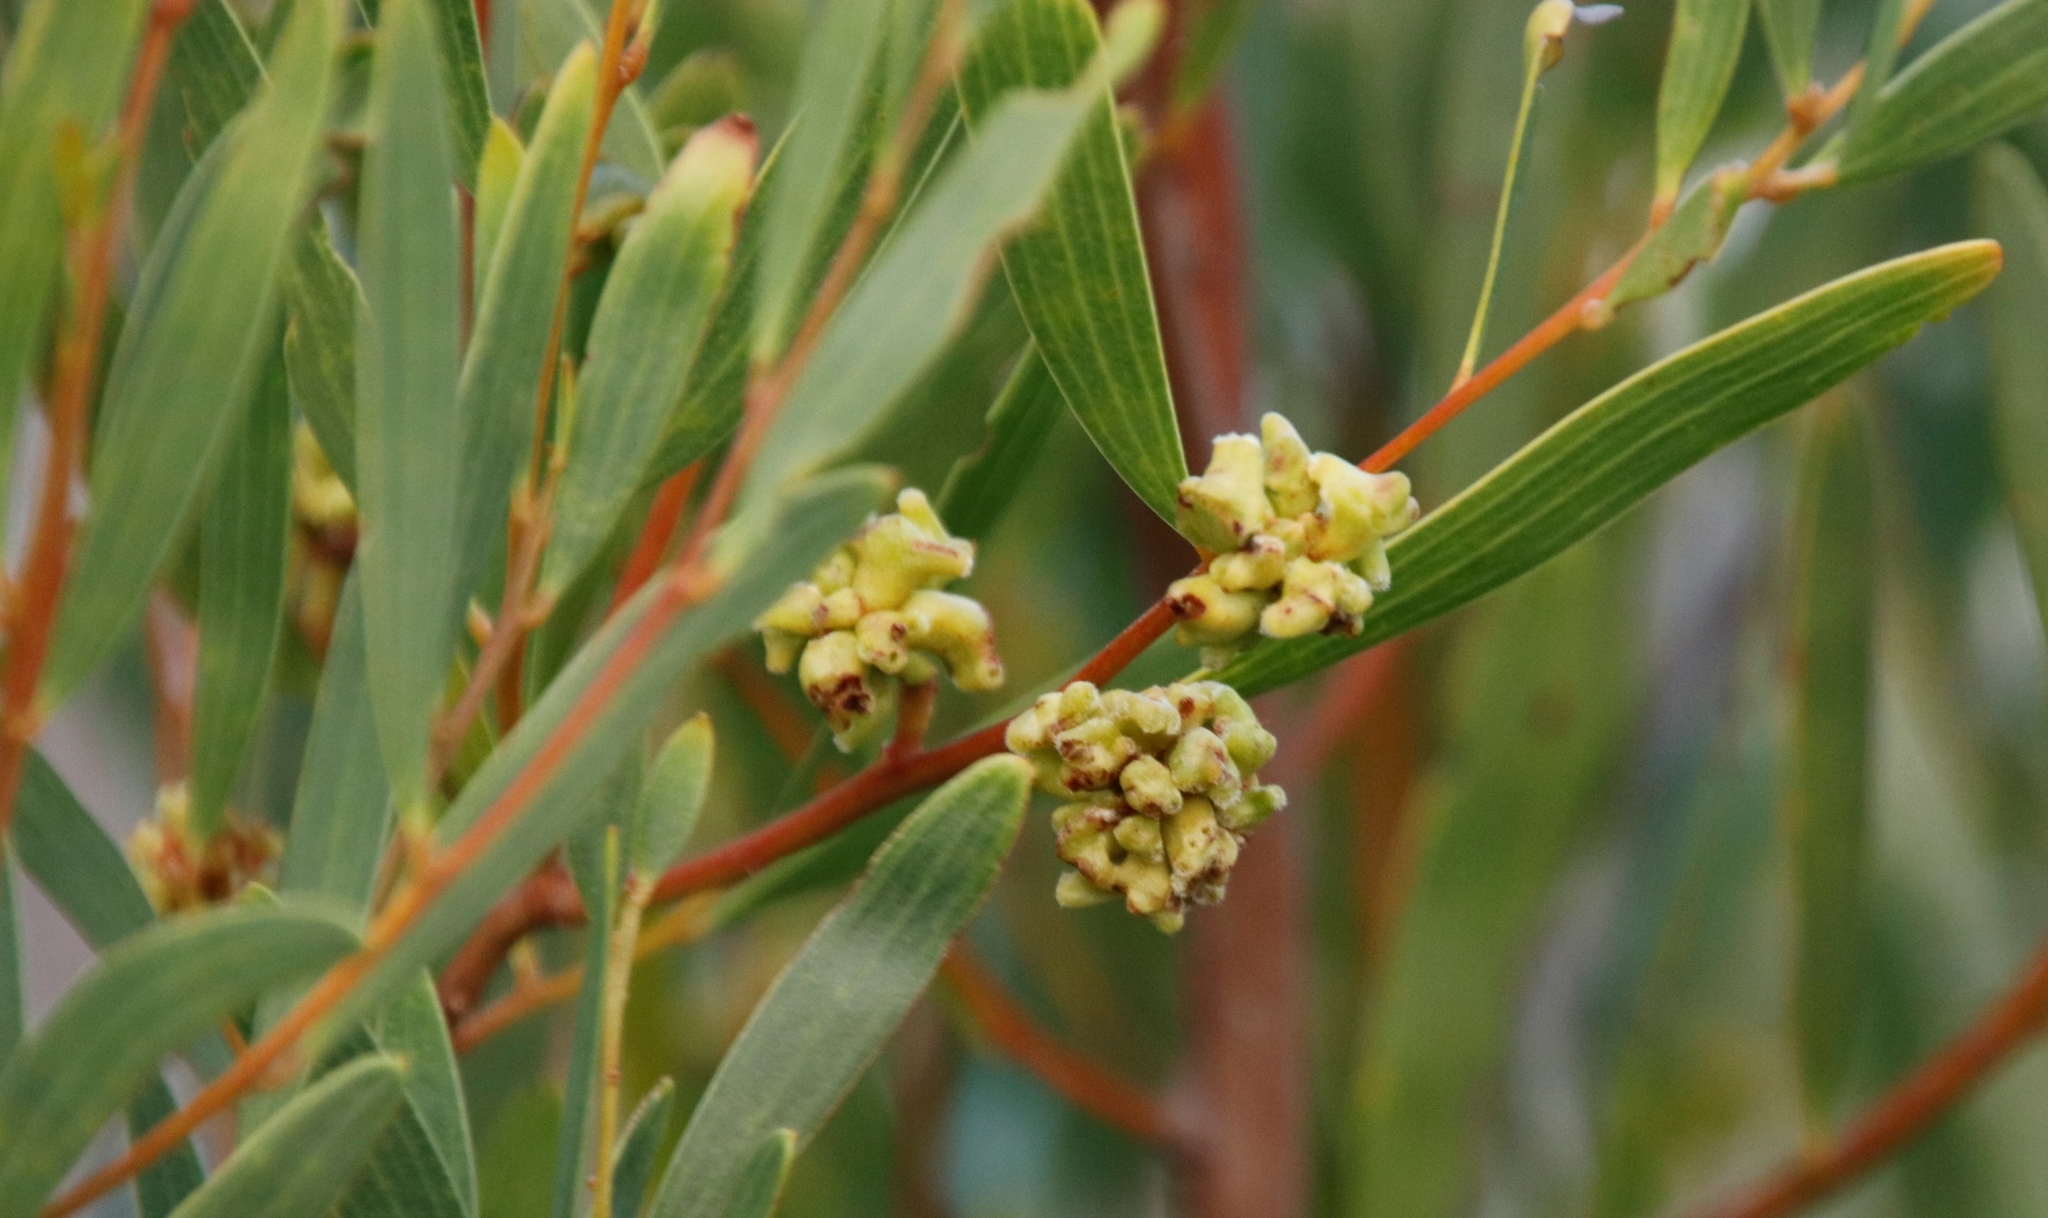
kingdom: Animalia
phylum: Arthropoda
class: Insecta
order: Diptera
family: Cecidomyiidae
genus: Dasineura
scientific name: Dasineura dielsi
